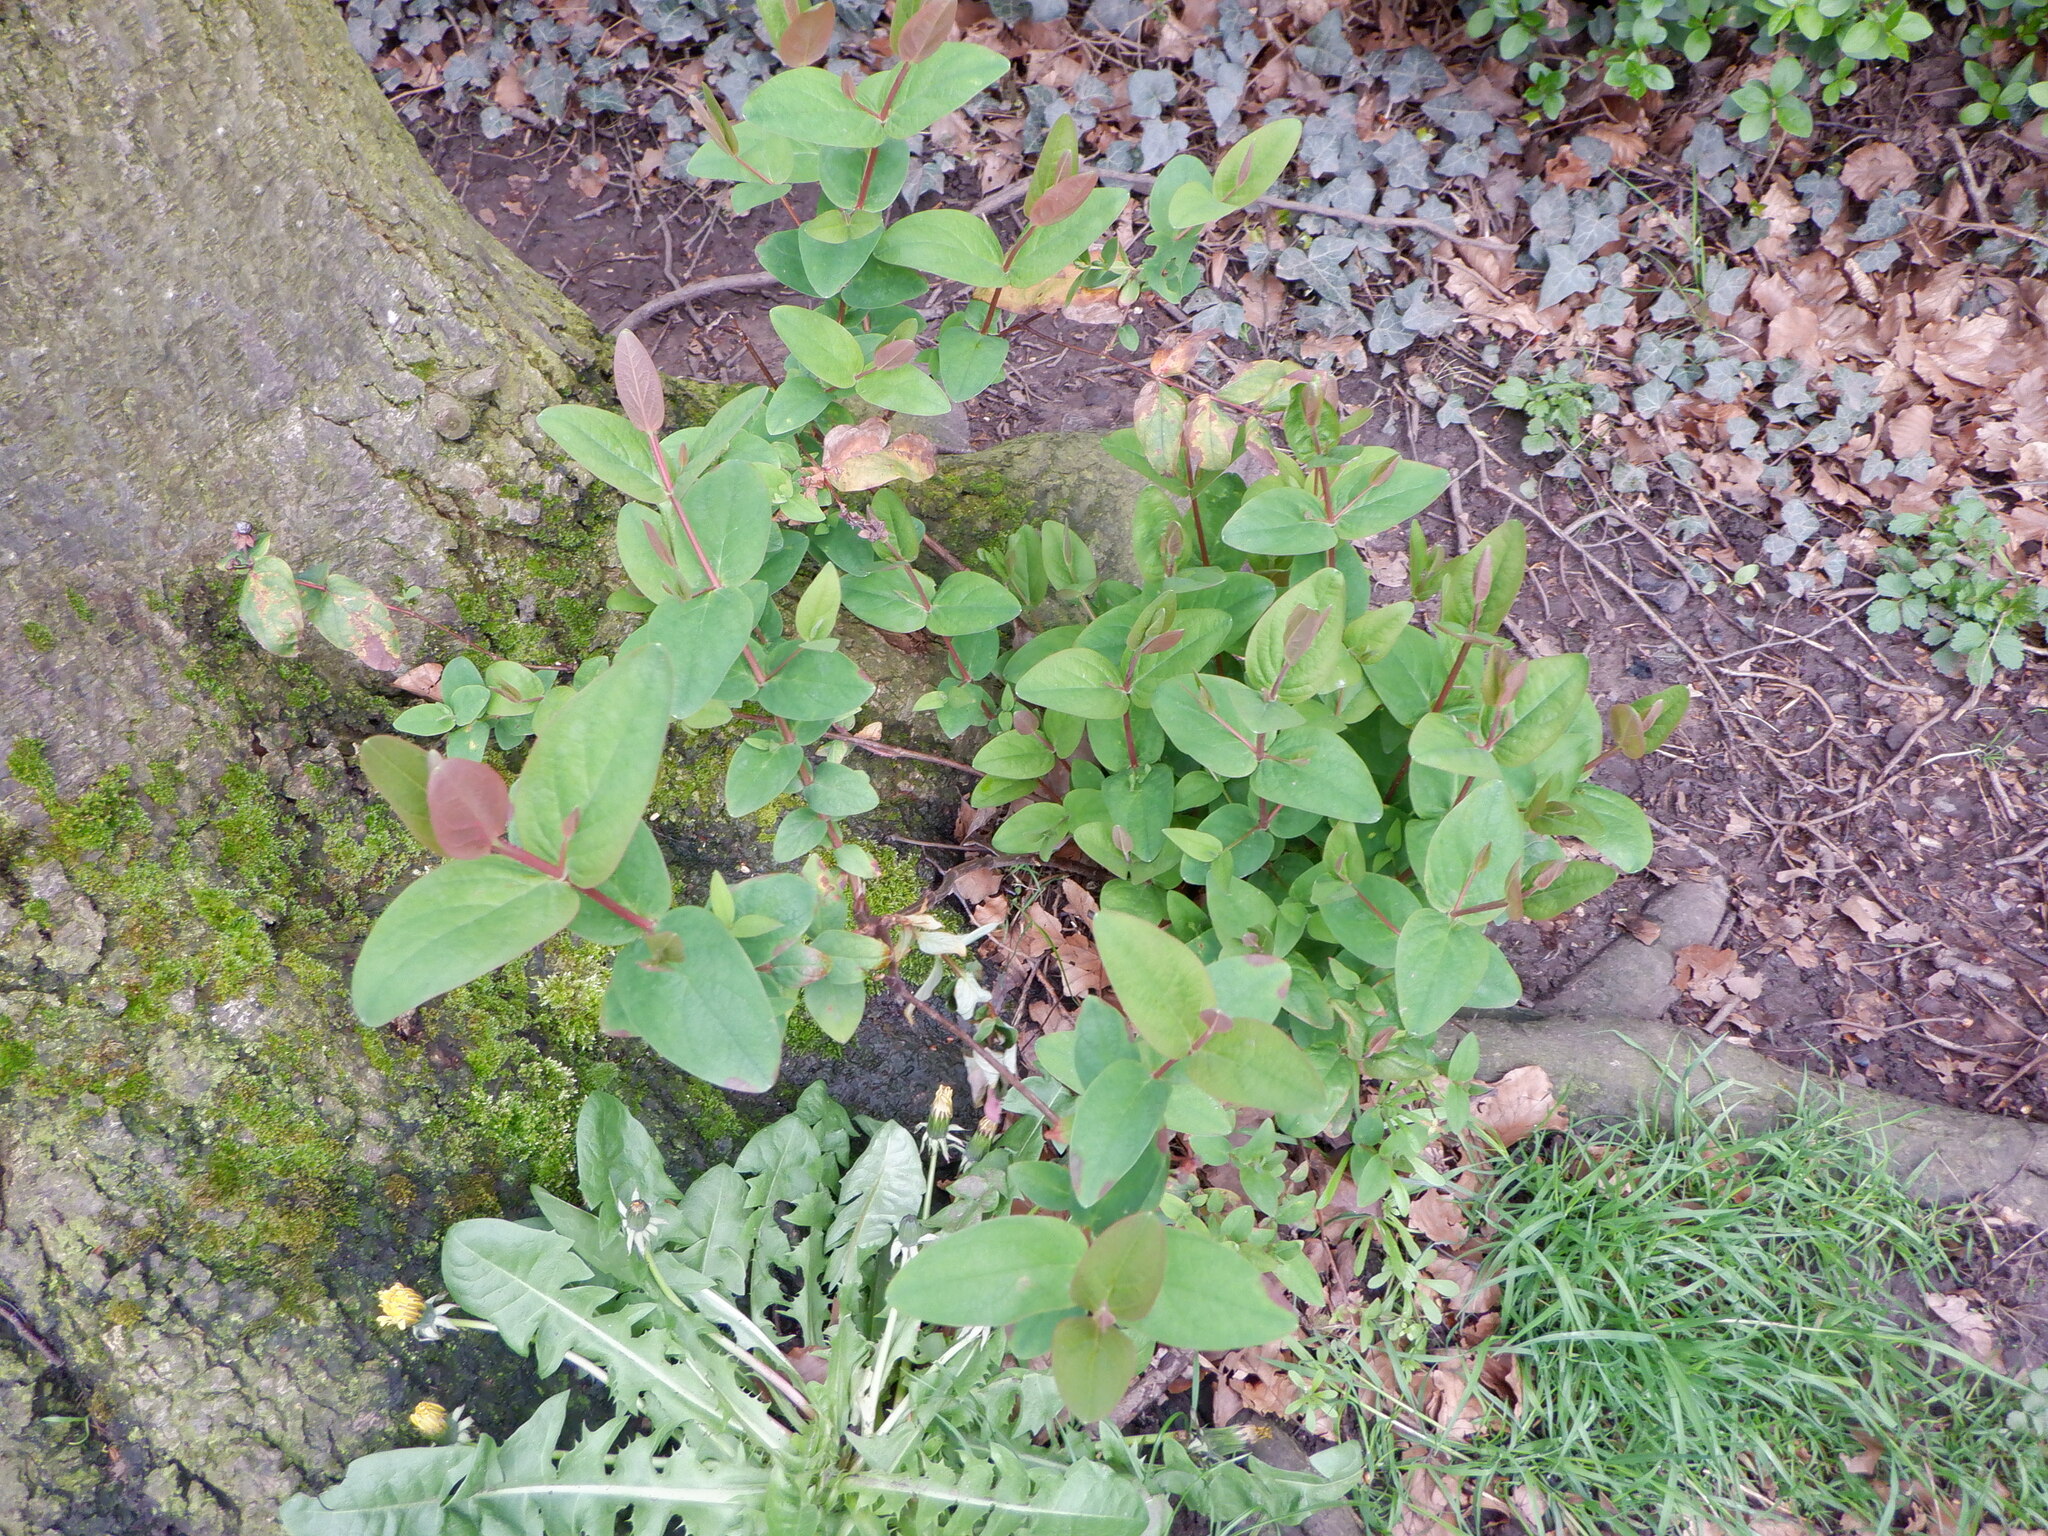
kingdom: Plantae
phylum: Tracheophyta
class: Magnoliopsida
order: Malpighiales
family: Hypericaceae
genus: Hypericum
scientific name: Hypericum androsaemum
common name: Sweet-amber
